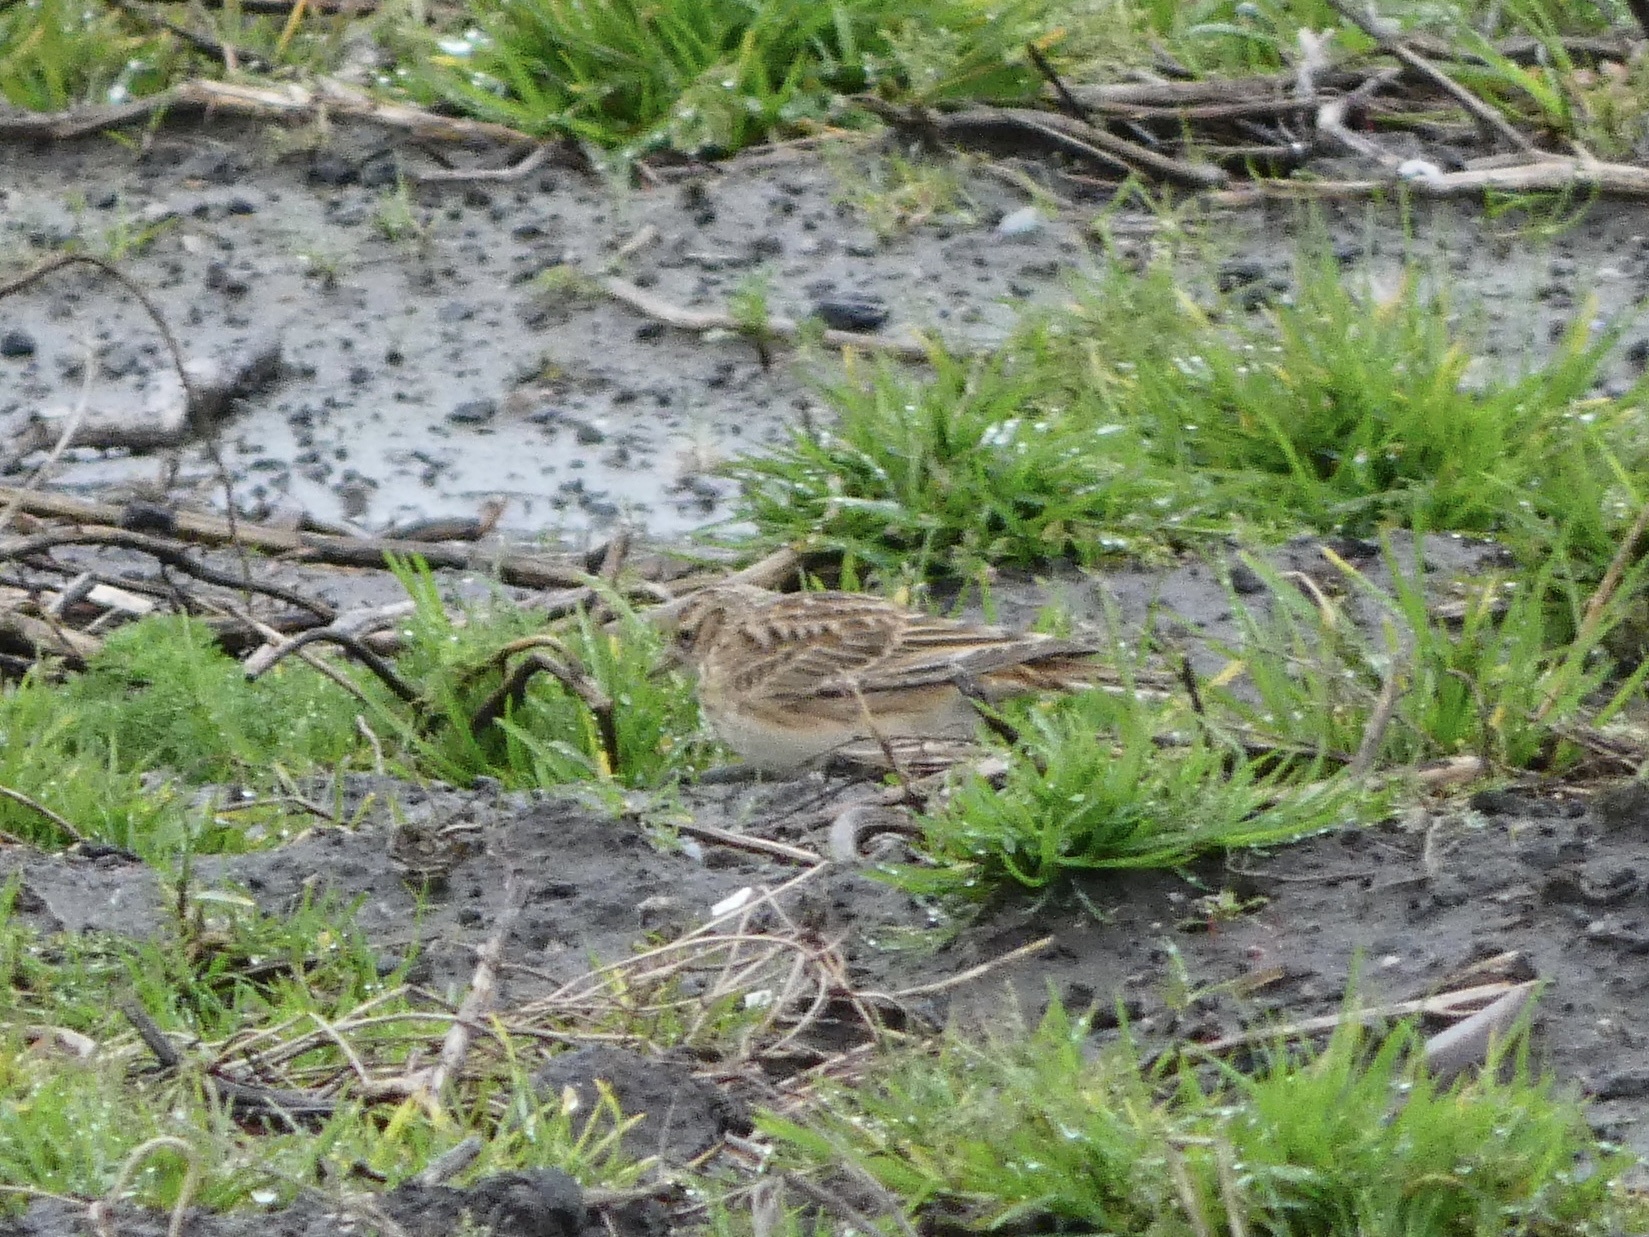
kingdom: Animalia
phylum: Chordata
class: Aves
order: Passeriformes
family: Alaudidae
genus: Alauda
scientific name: Alauda arvensis
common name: Eurasian skylark
